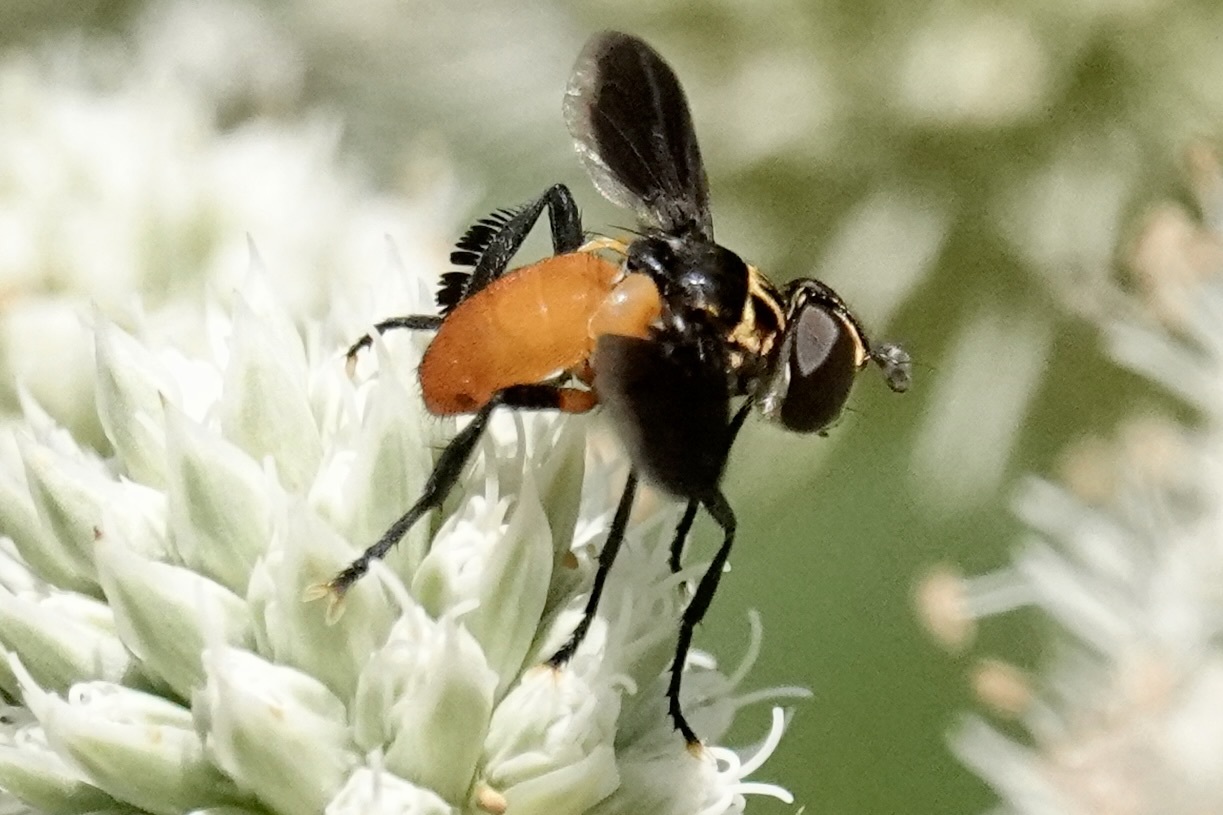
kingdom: Animalia
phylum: Arthropoda
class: Insecta
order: Diptera
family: Tachinidae
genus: Trichopoda
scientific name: Trichopoda pennipes
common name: Tachinid fly
